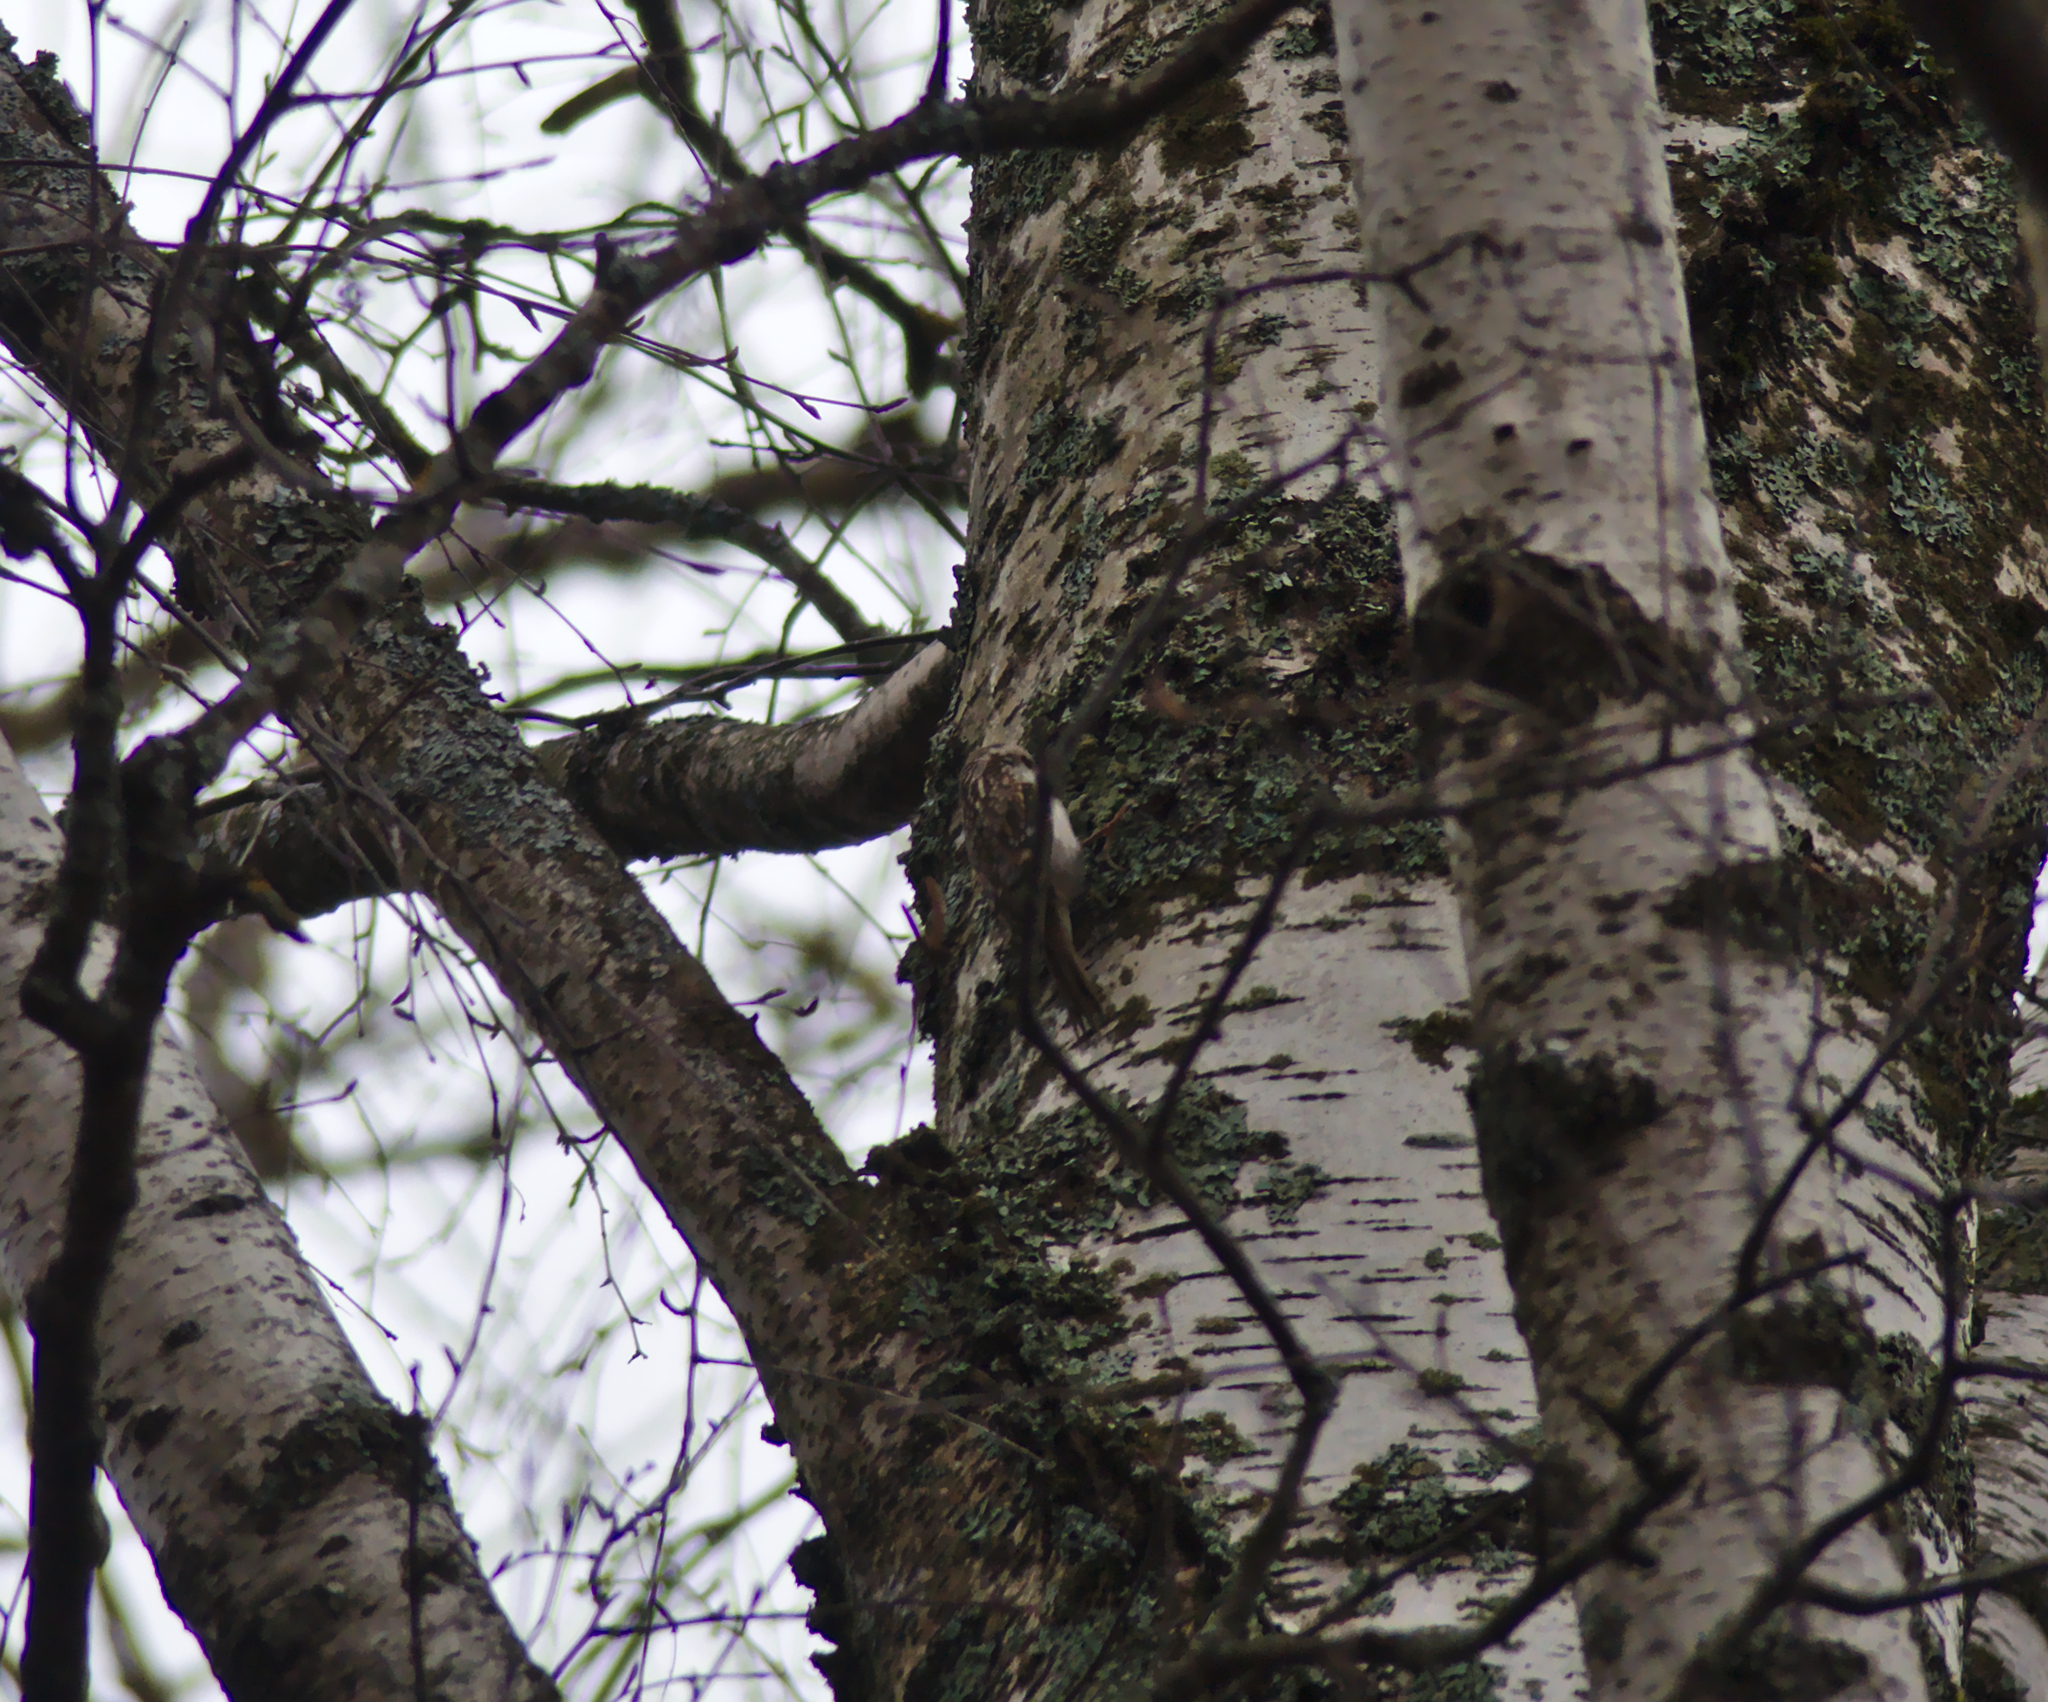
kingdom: Animalia
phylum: Chordata
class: Aves
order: Passeriformes
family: Certhiidae
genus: Certhia
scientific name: Certhia familiaris
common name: Eurasian treecreeper
